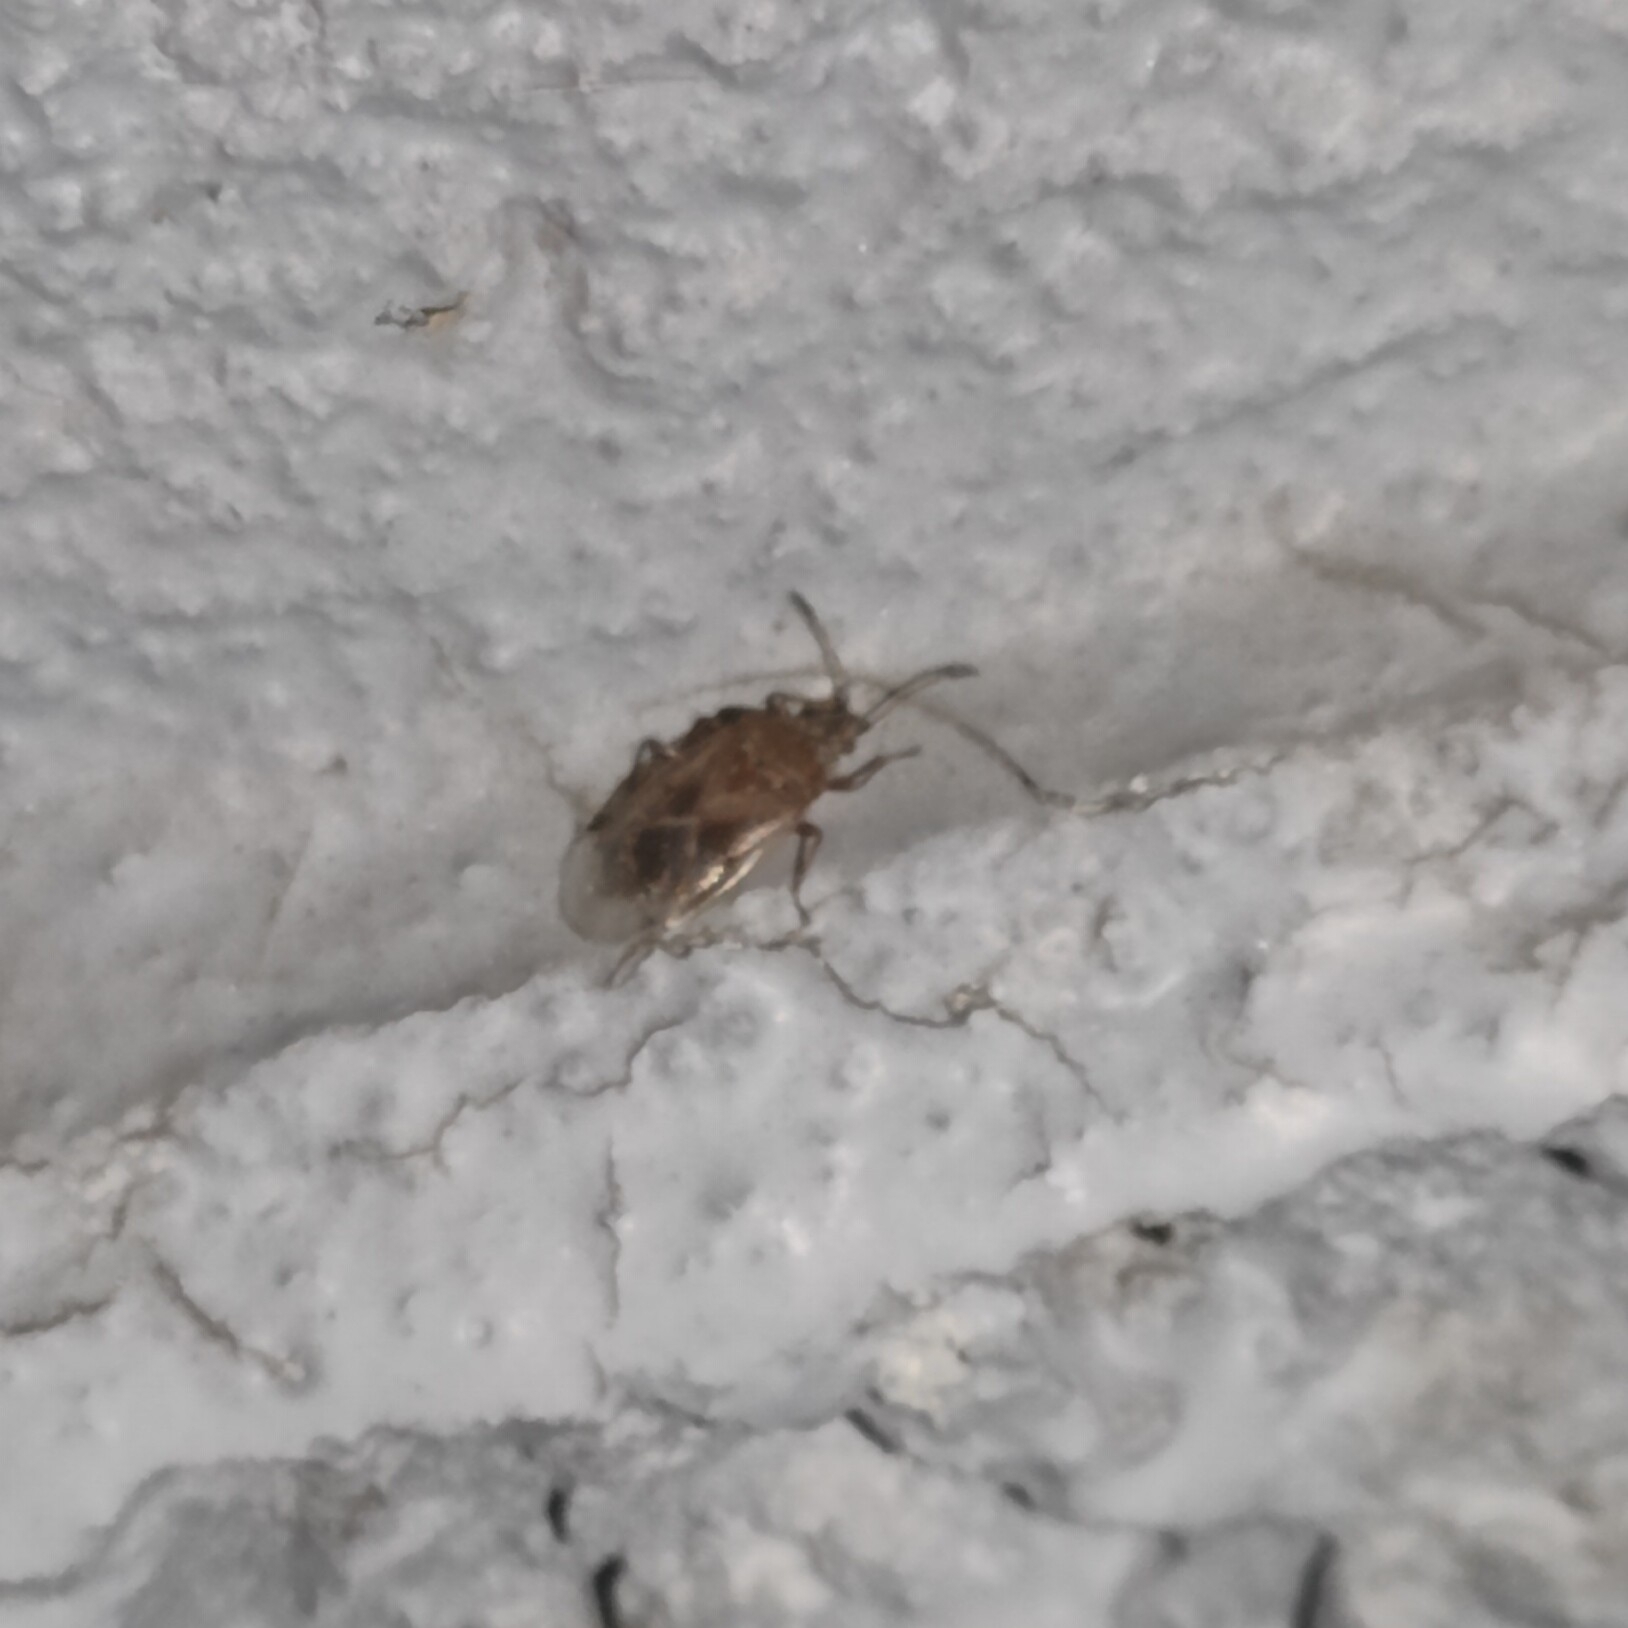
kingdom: Animalia
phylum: Arthropoda
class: Insecta
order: Hemiptera
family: Lygaeidae
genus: Kleidocerys
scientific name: Kleidocerys resedae
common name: Birch catkin bug
